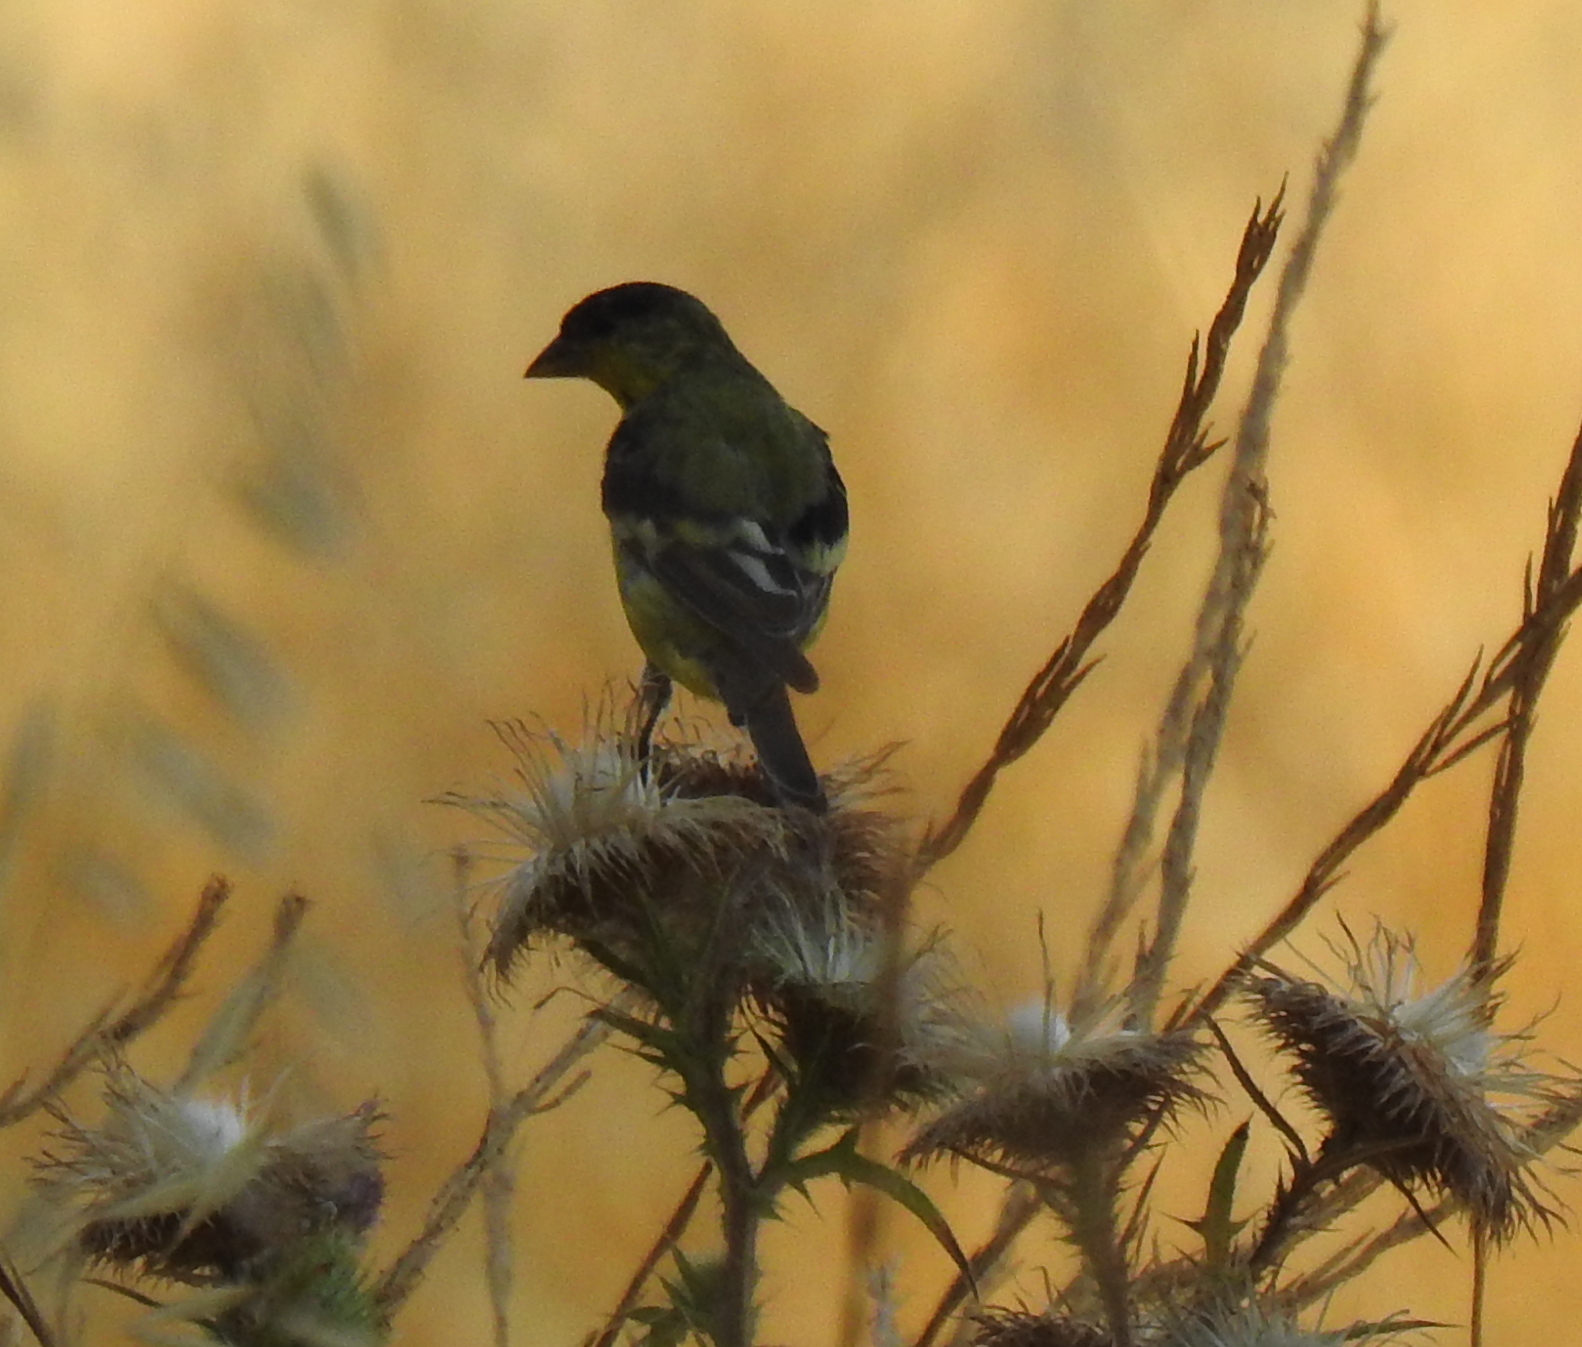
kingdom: Animalia
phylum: Chordata
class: Aves
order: Passeriformes
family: Fringillidae
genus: Spinus
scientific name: Spinus psaltria
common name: Lesser goldfinch
